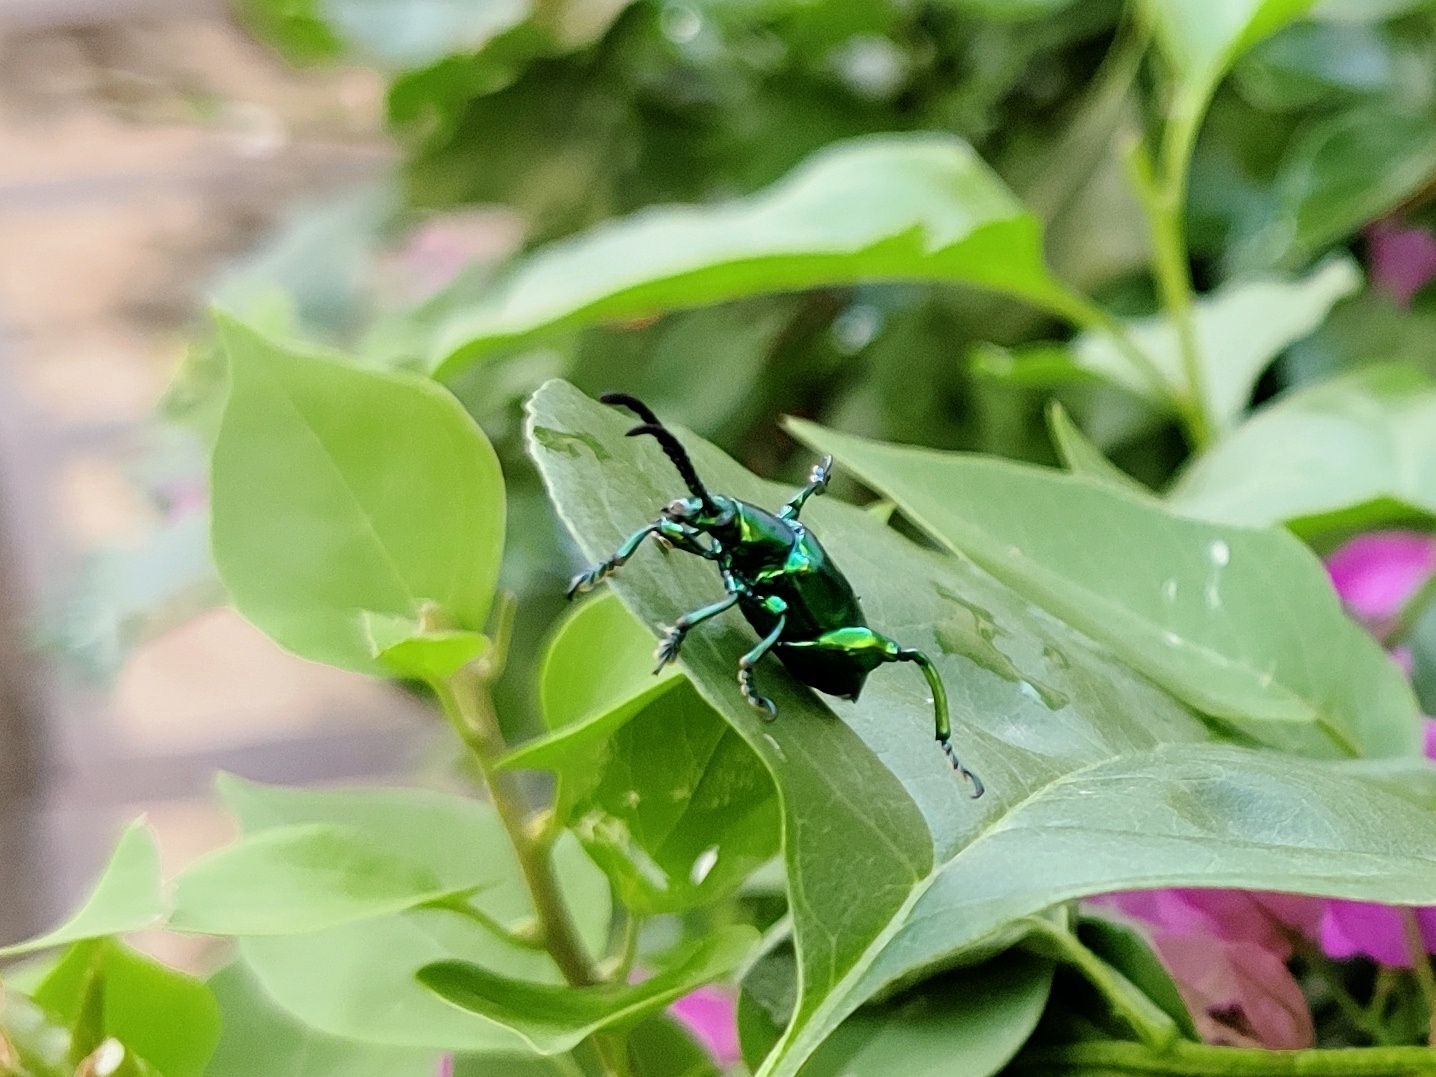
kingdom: Animalia
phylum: Arthropoda
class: Insecta
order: Coleoptera
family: Chrysomelidae
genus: Sagra
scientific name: Sagra femorata
